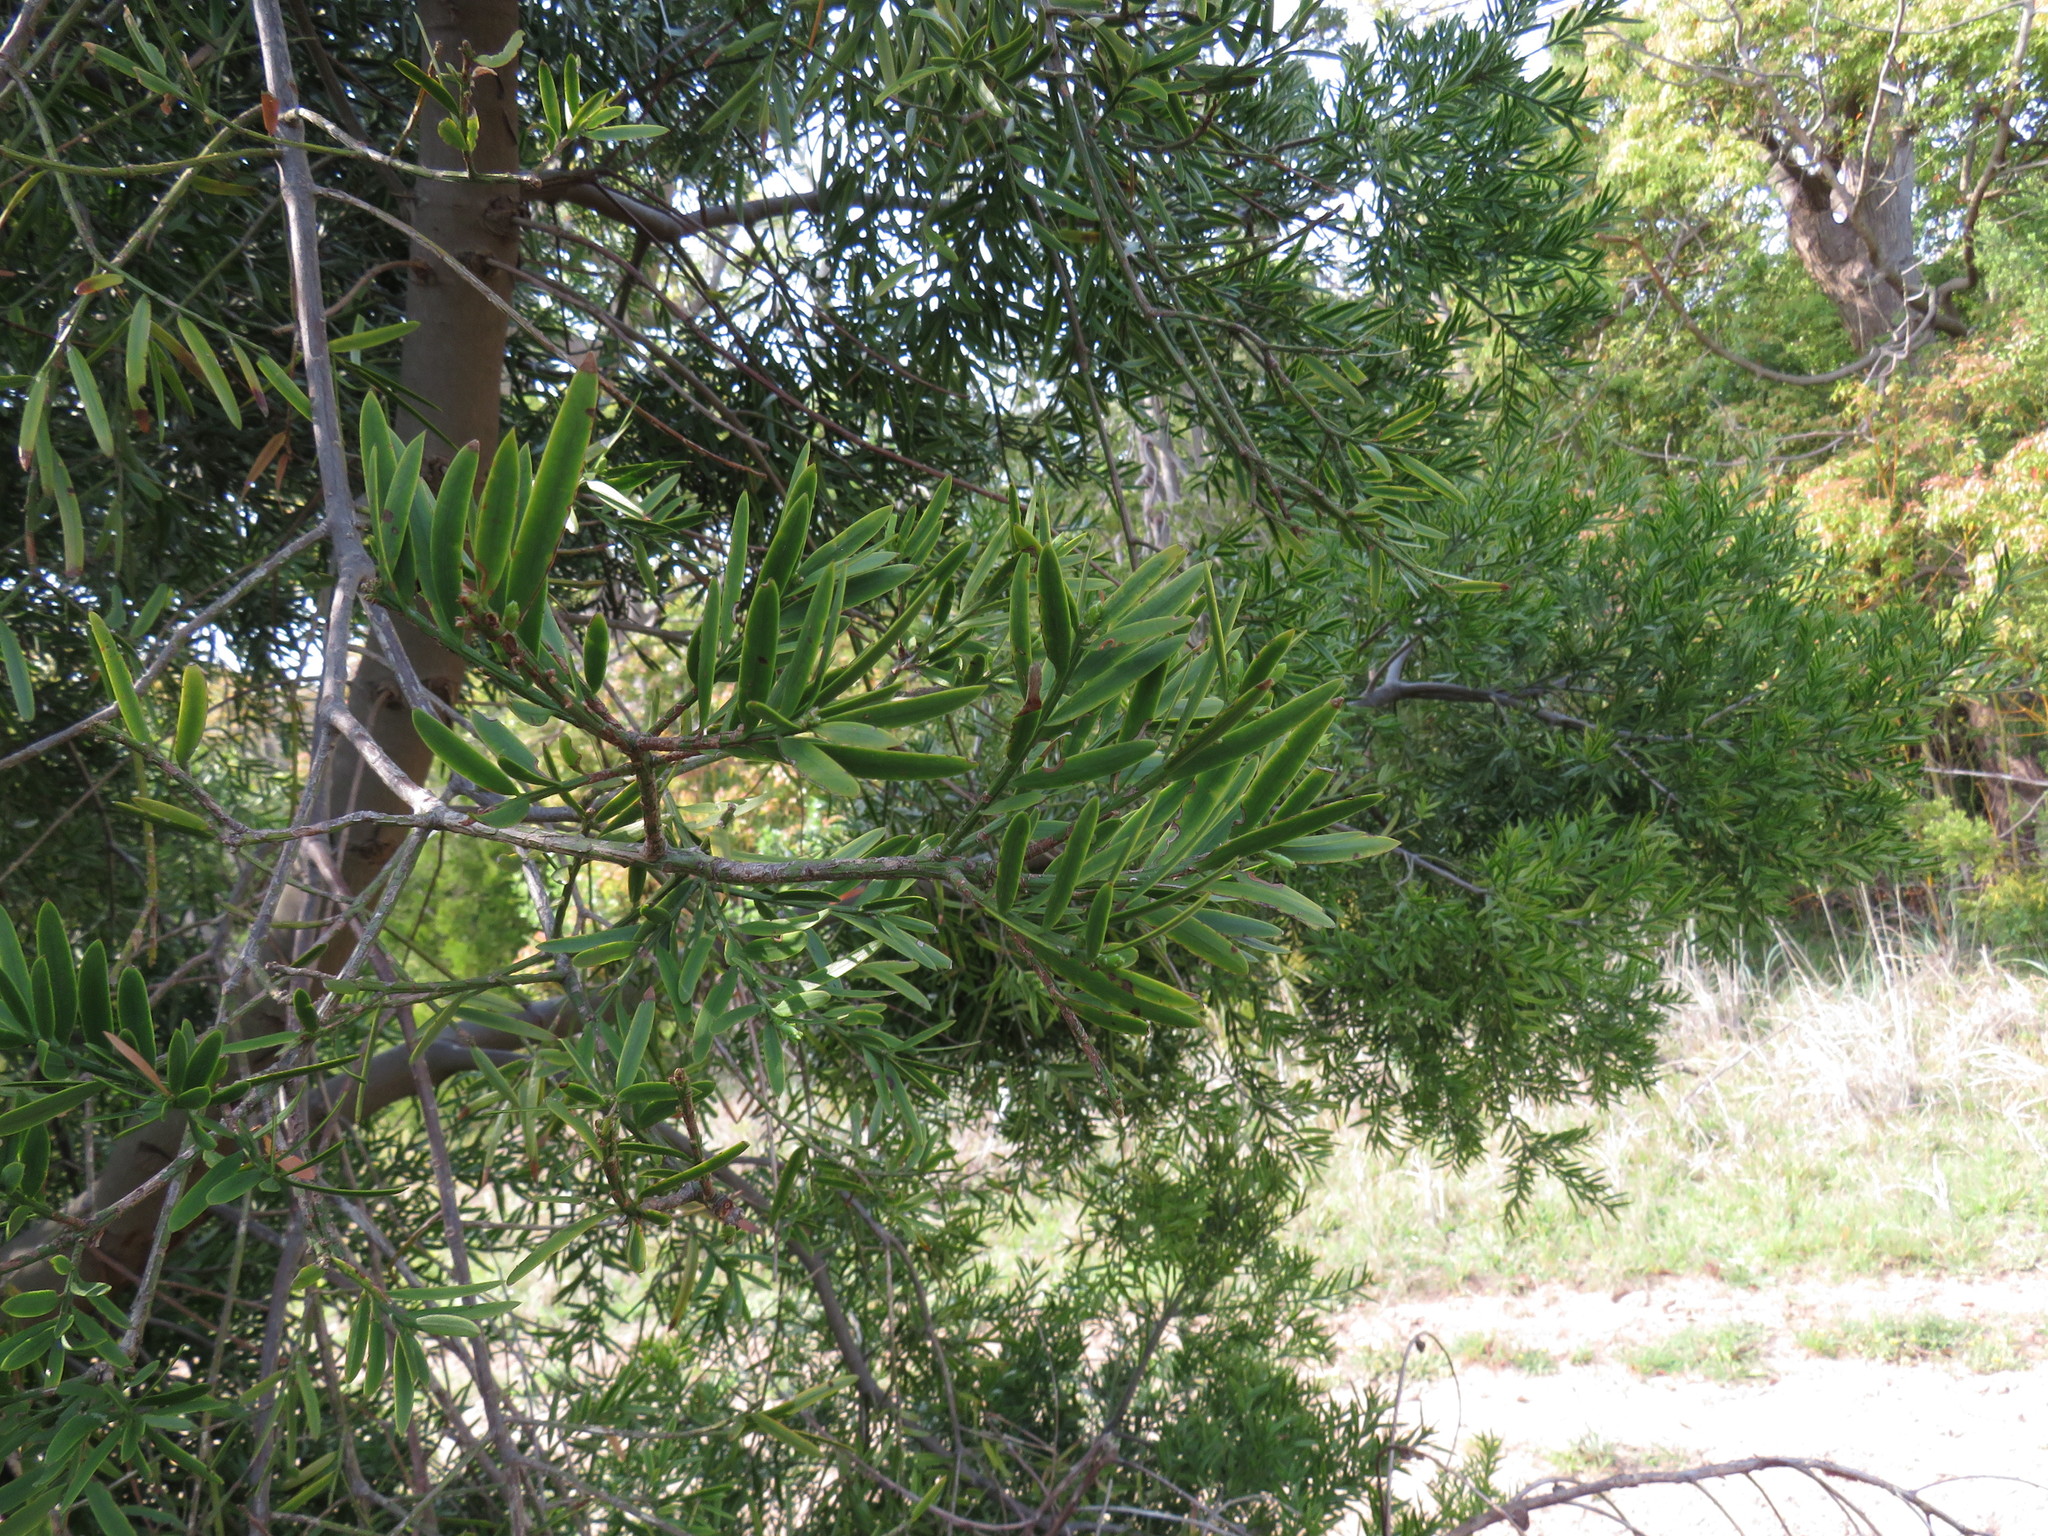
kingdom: Plantae
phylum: Tracheophyta
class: Pinopsida
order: Pinales
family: Podocarpaceae
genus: Afrocarpus
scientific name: Afrocarpus falcatus
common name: Bastard yellowwood
